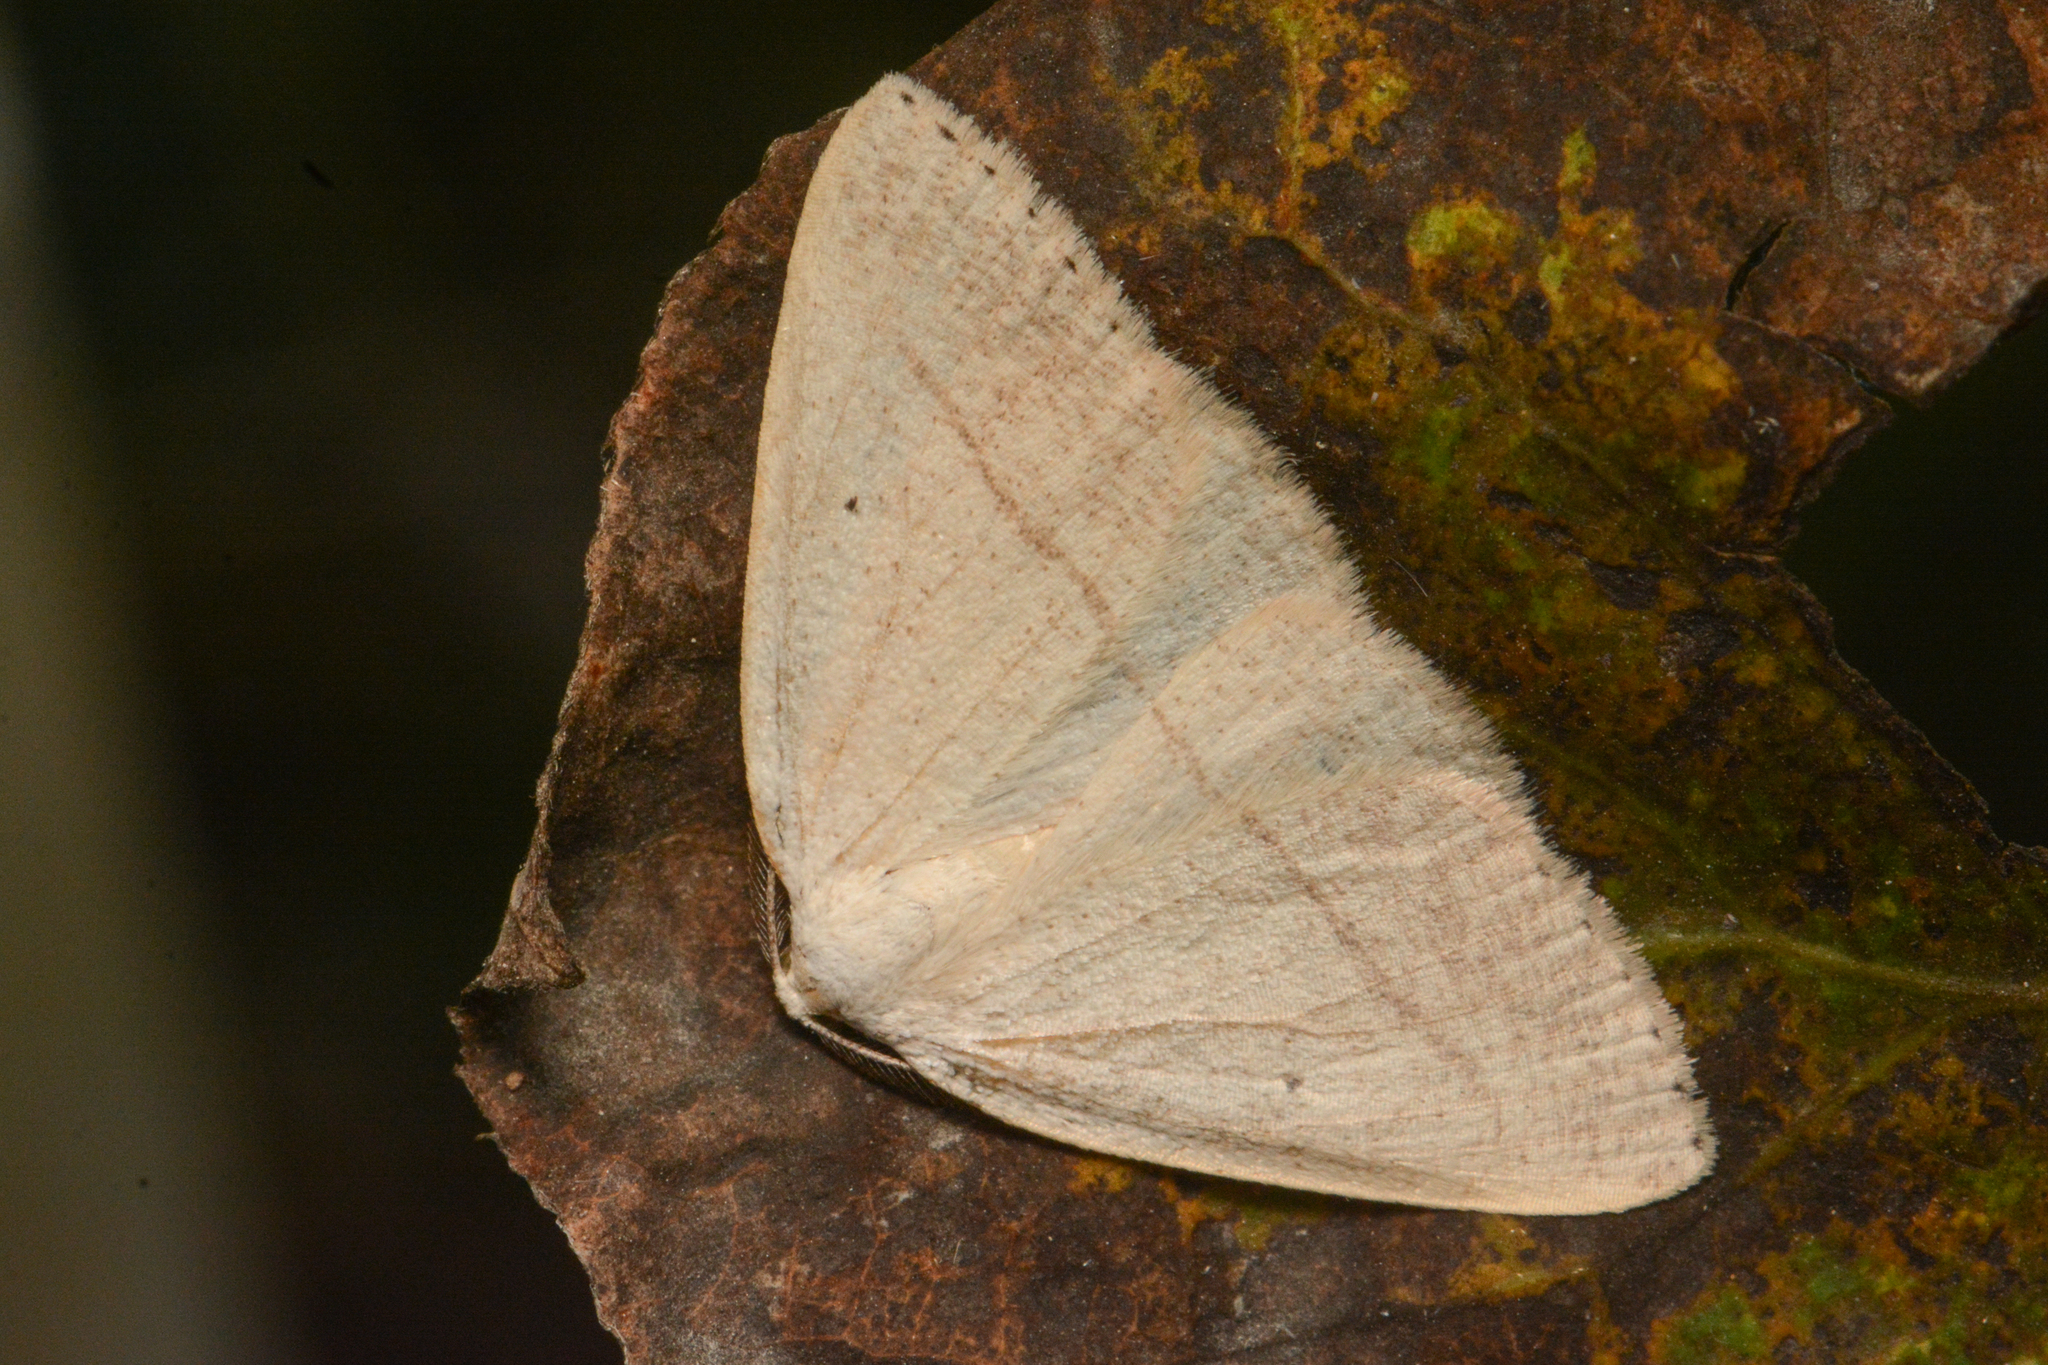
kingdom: Animalia
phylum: Arthropoda
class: Insecta
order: Lepidoptera
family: Geometridae
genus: Eudrepanulatrix
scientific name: Eudrepanulatrix rectifascia
